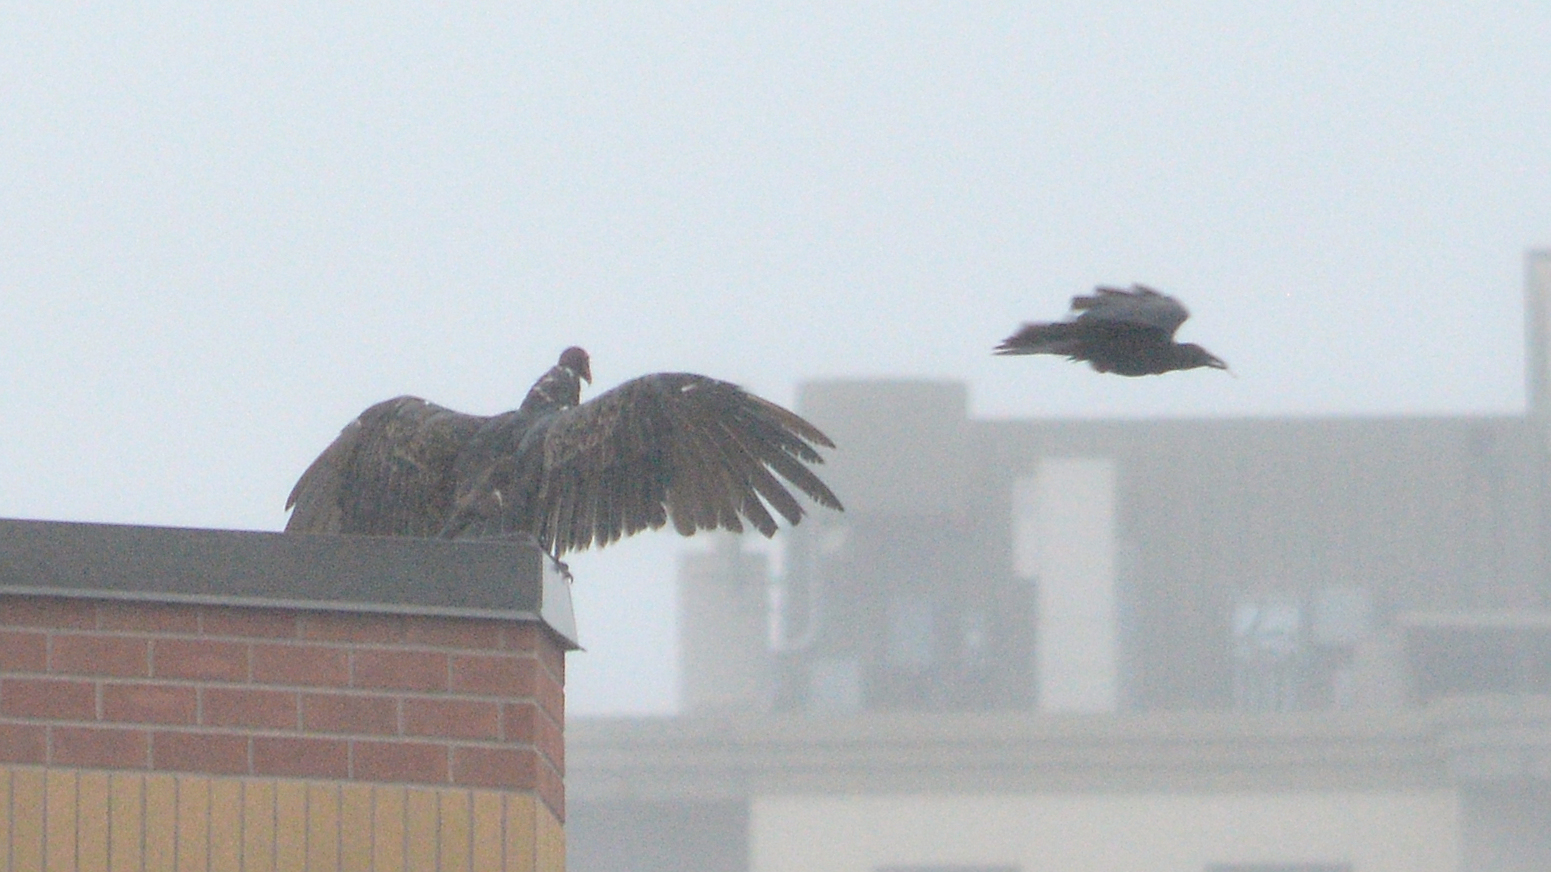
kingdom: Animalia
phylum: Chordata
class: Aves
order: Accipitriformes
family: Cathartidae
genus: Cathartes
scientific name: Cathartes aura
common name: Turkey vulture
